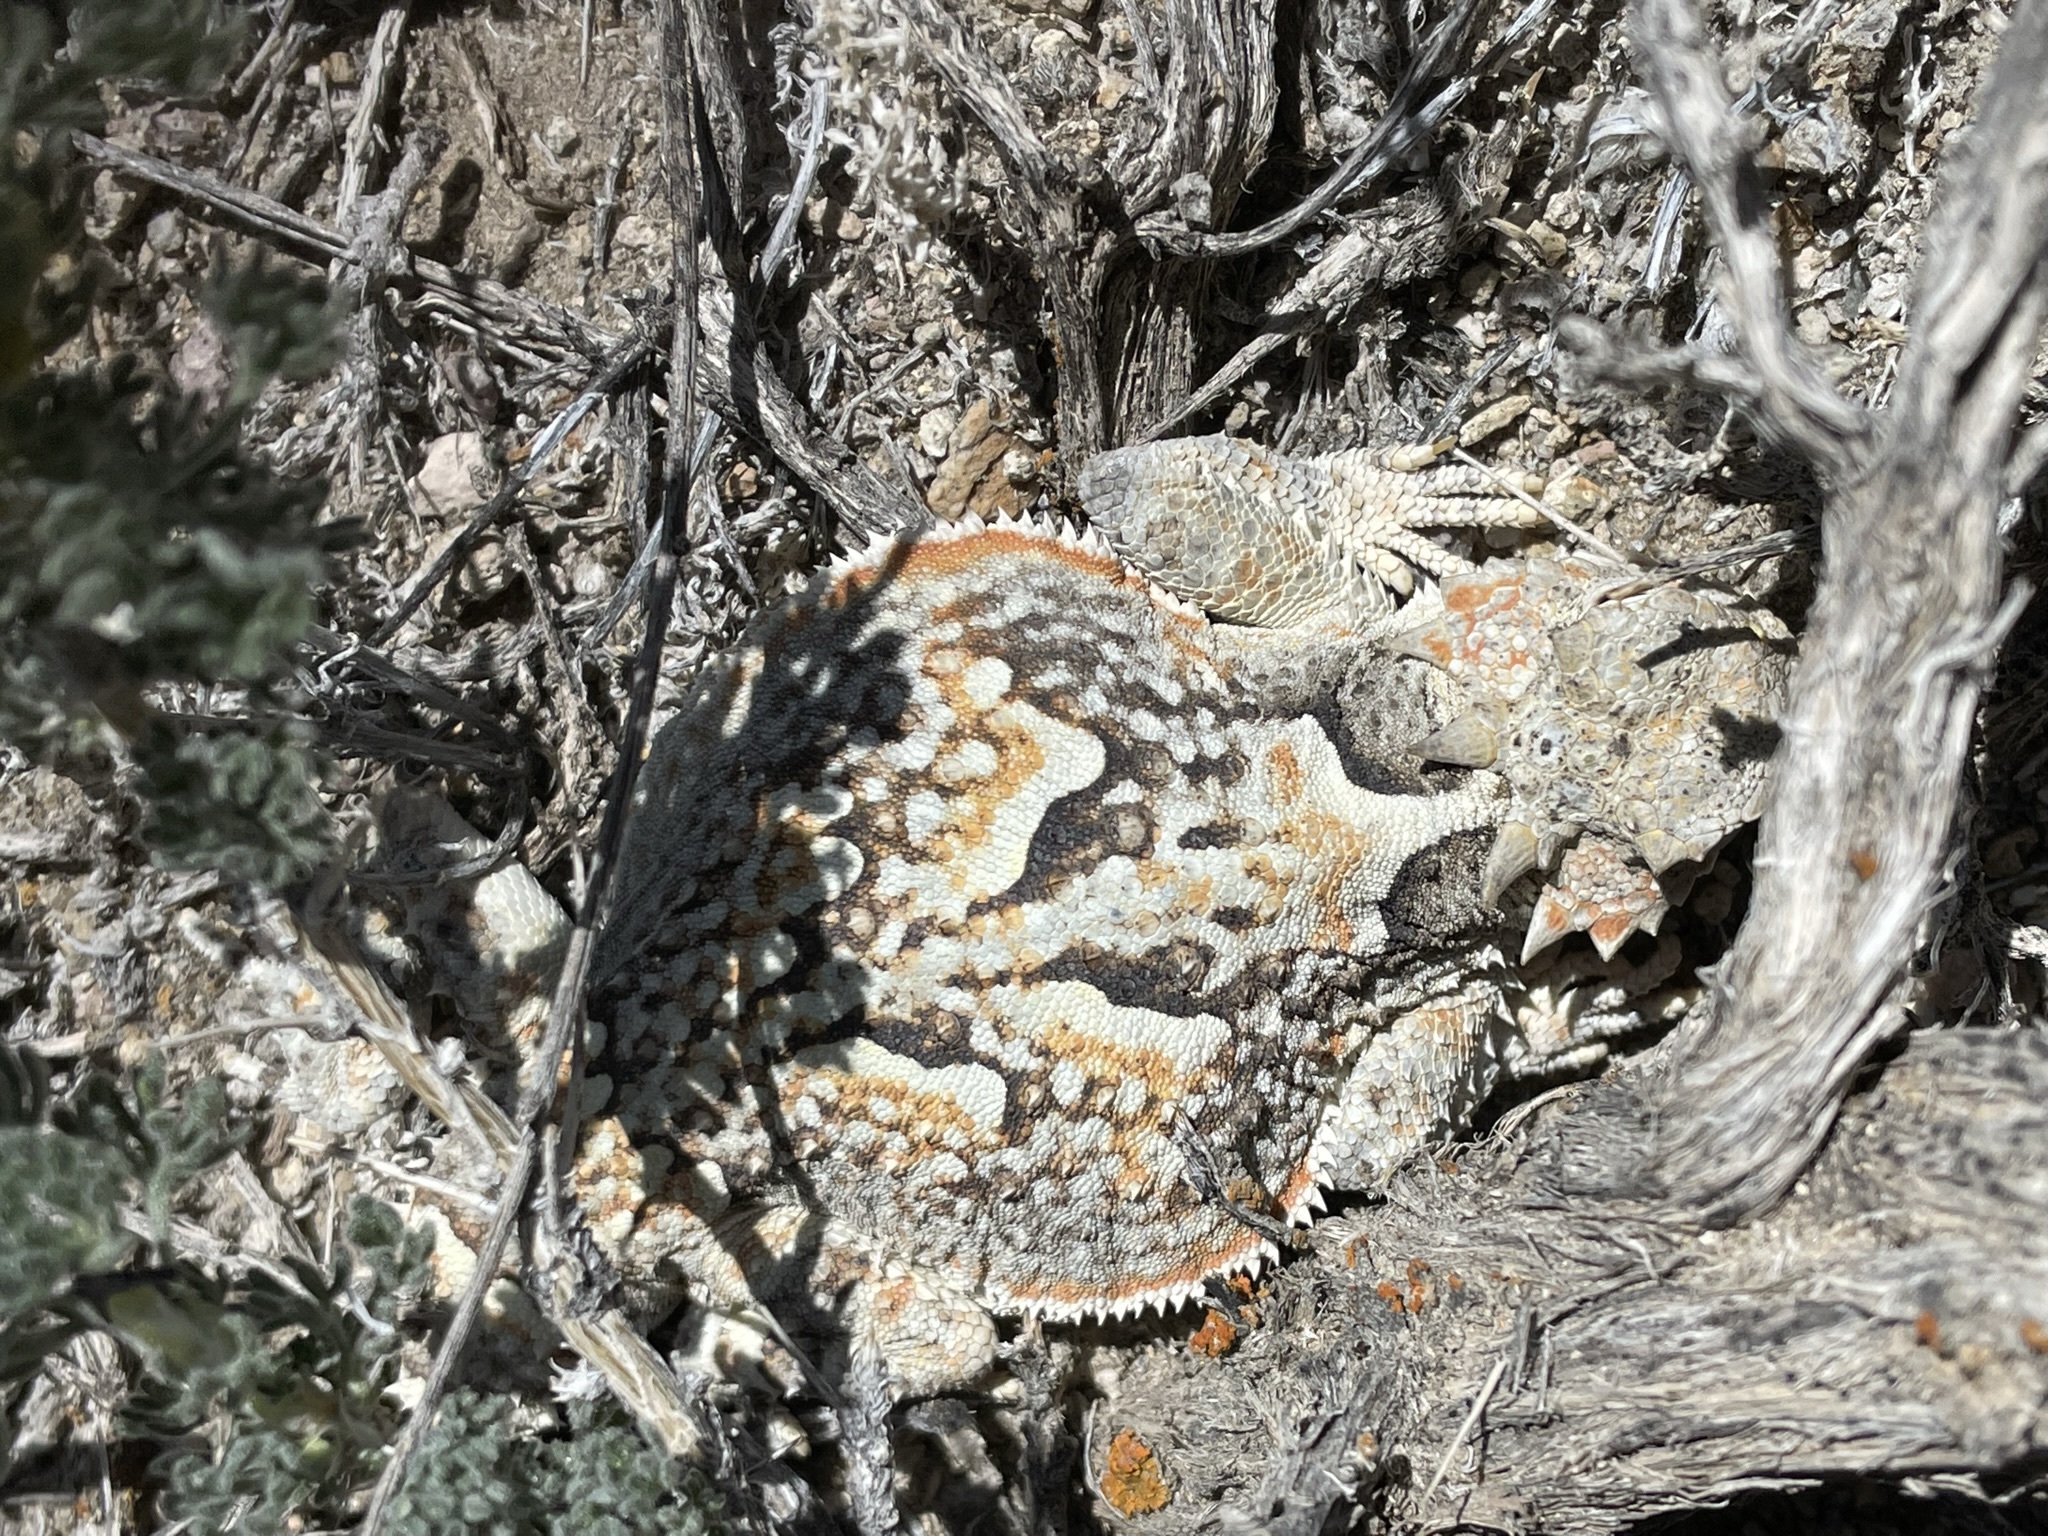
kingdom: Animalia
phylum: Chordata
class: Squamata
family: Phrynosomatidae
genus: Phrynosoma
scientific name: Phrynosoma platyrhinos
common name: Desert horned lizard
